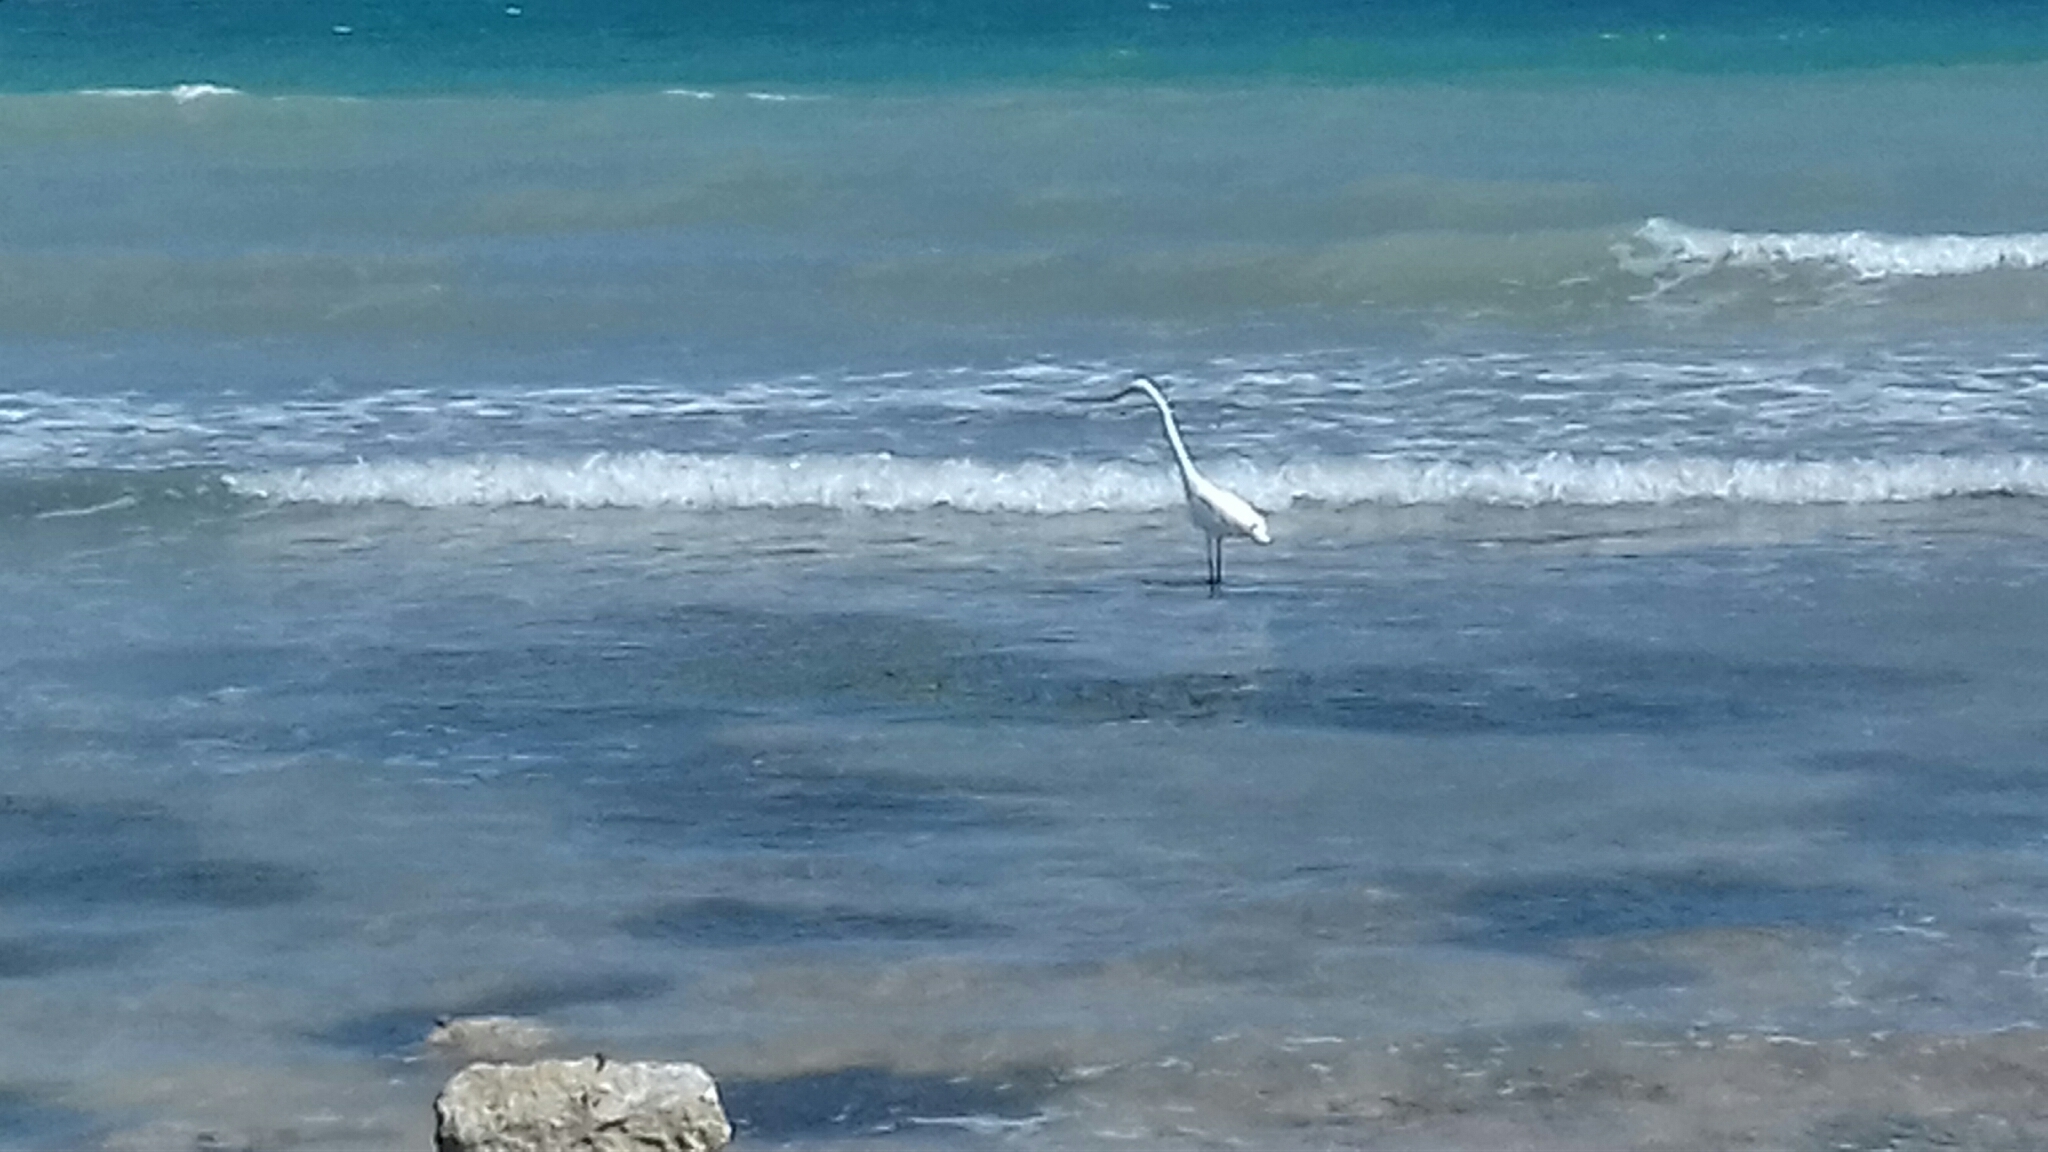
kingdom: Animalia
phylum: Chordata
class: Aves
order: Pelecaniformes
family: Ardeidae
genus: Ardea
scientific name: Ardea alba
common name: Great egret
